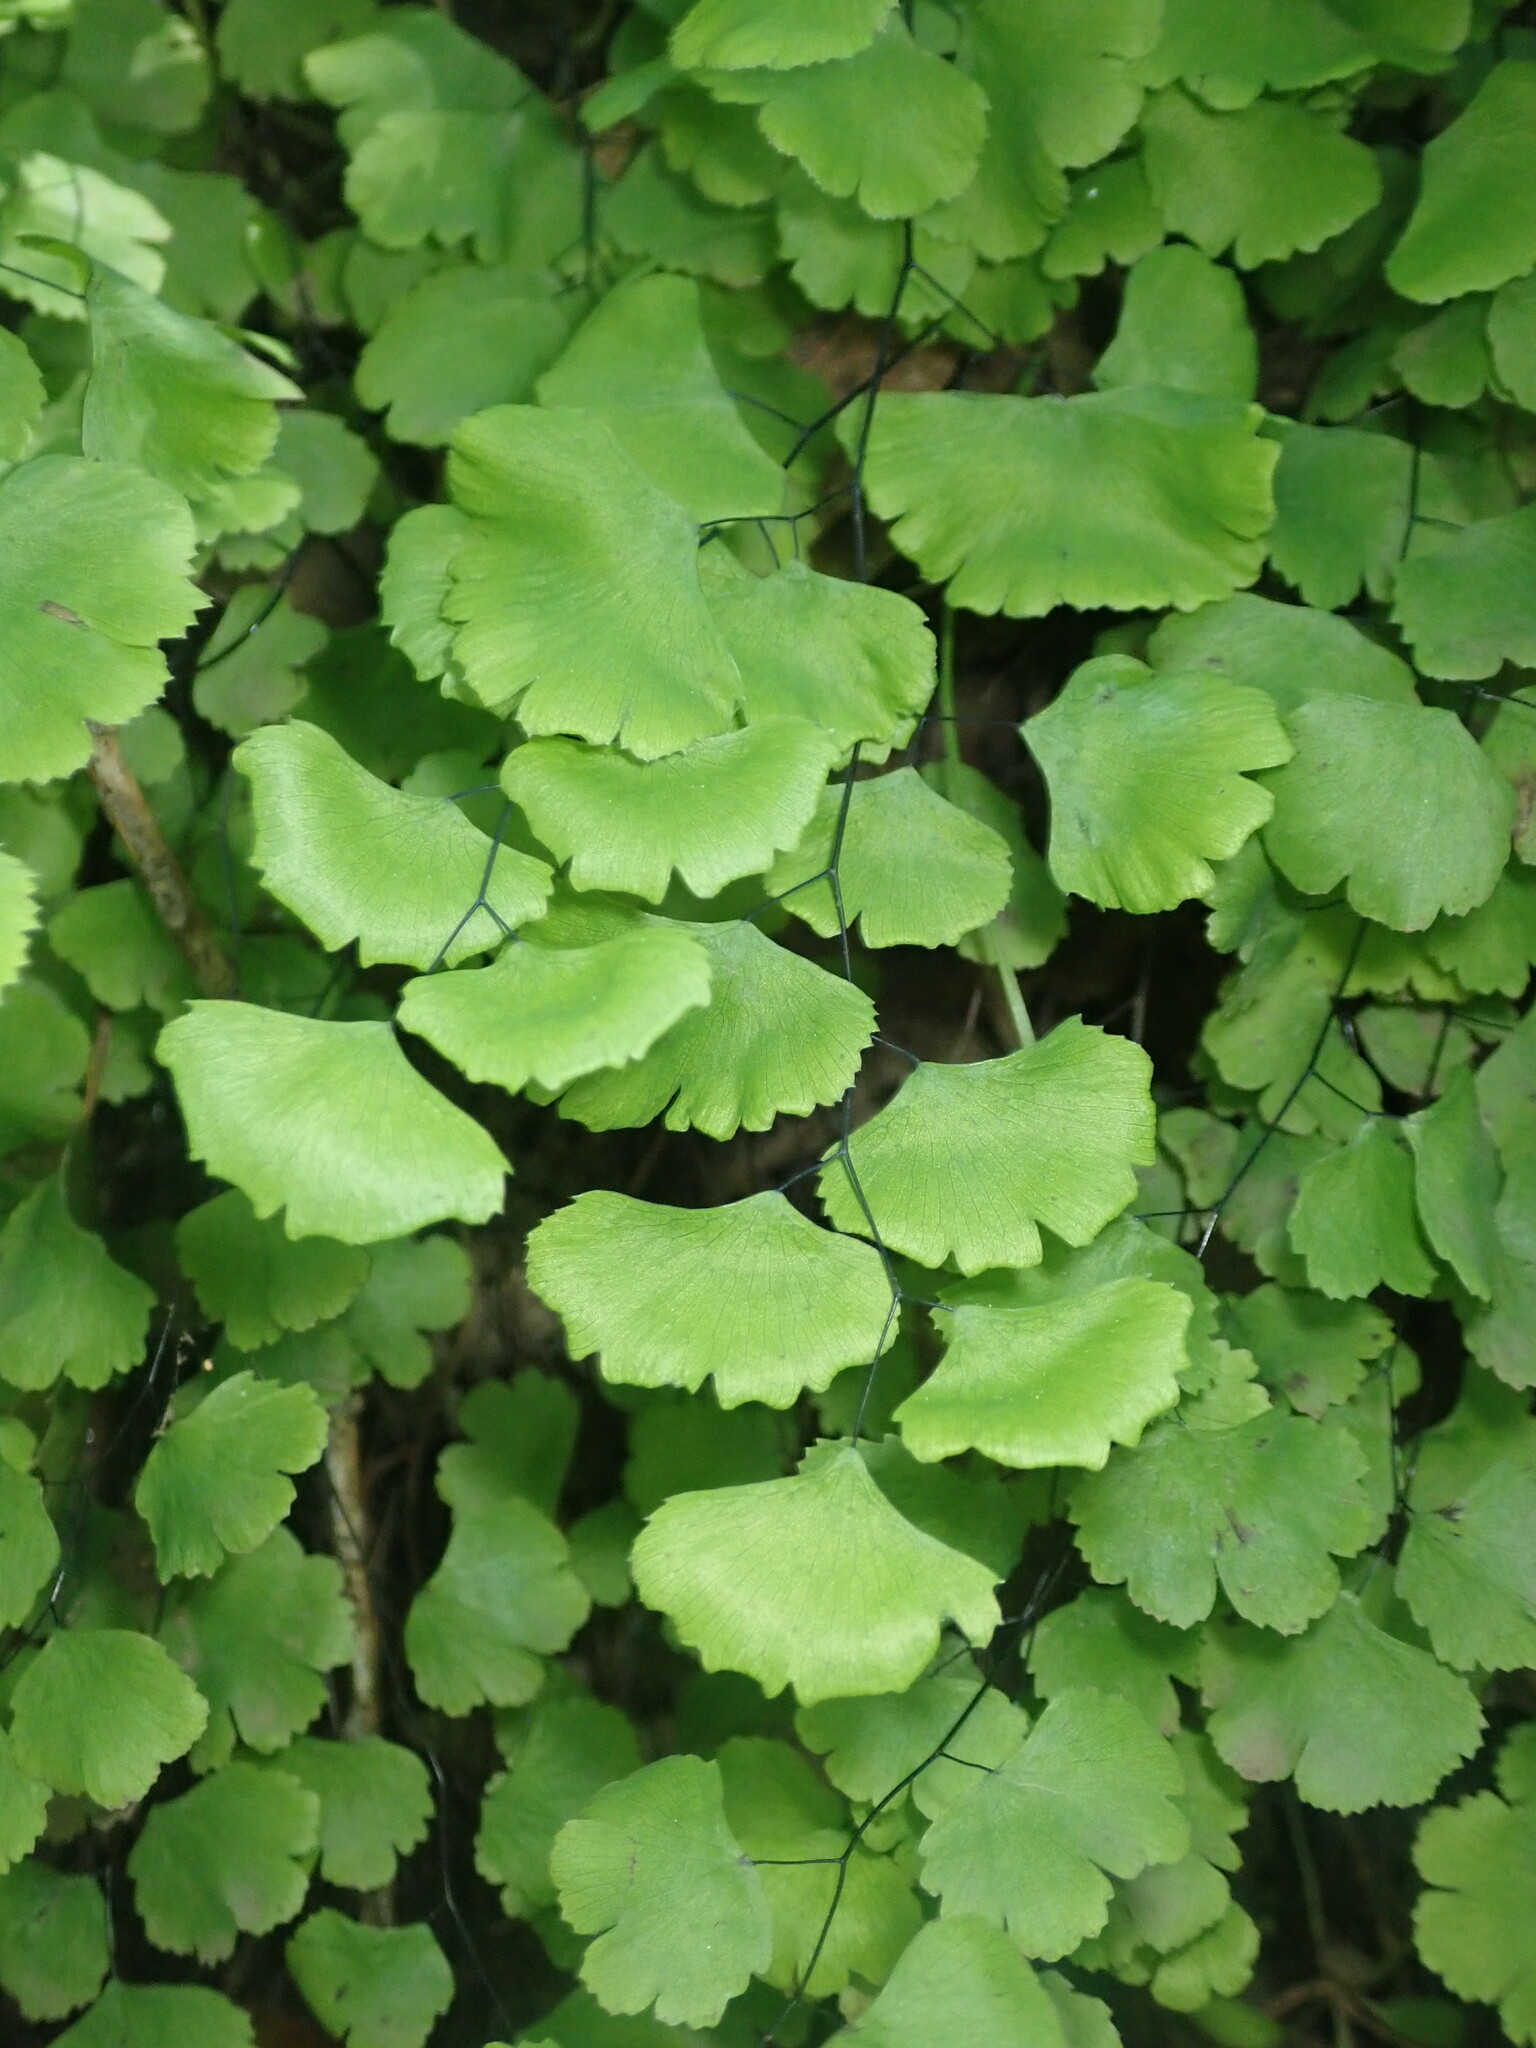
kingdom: Plantae
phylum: Tracheophyta
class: Polypodiopsida
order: Polypodiales
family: Pteridaceae
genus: Adiantum
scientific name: Adiantum jordanii
